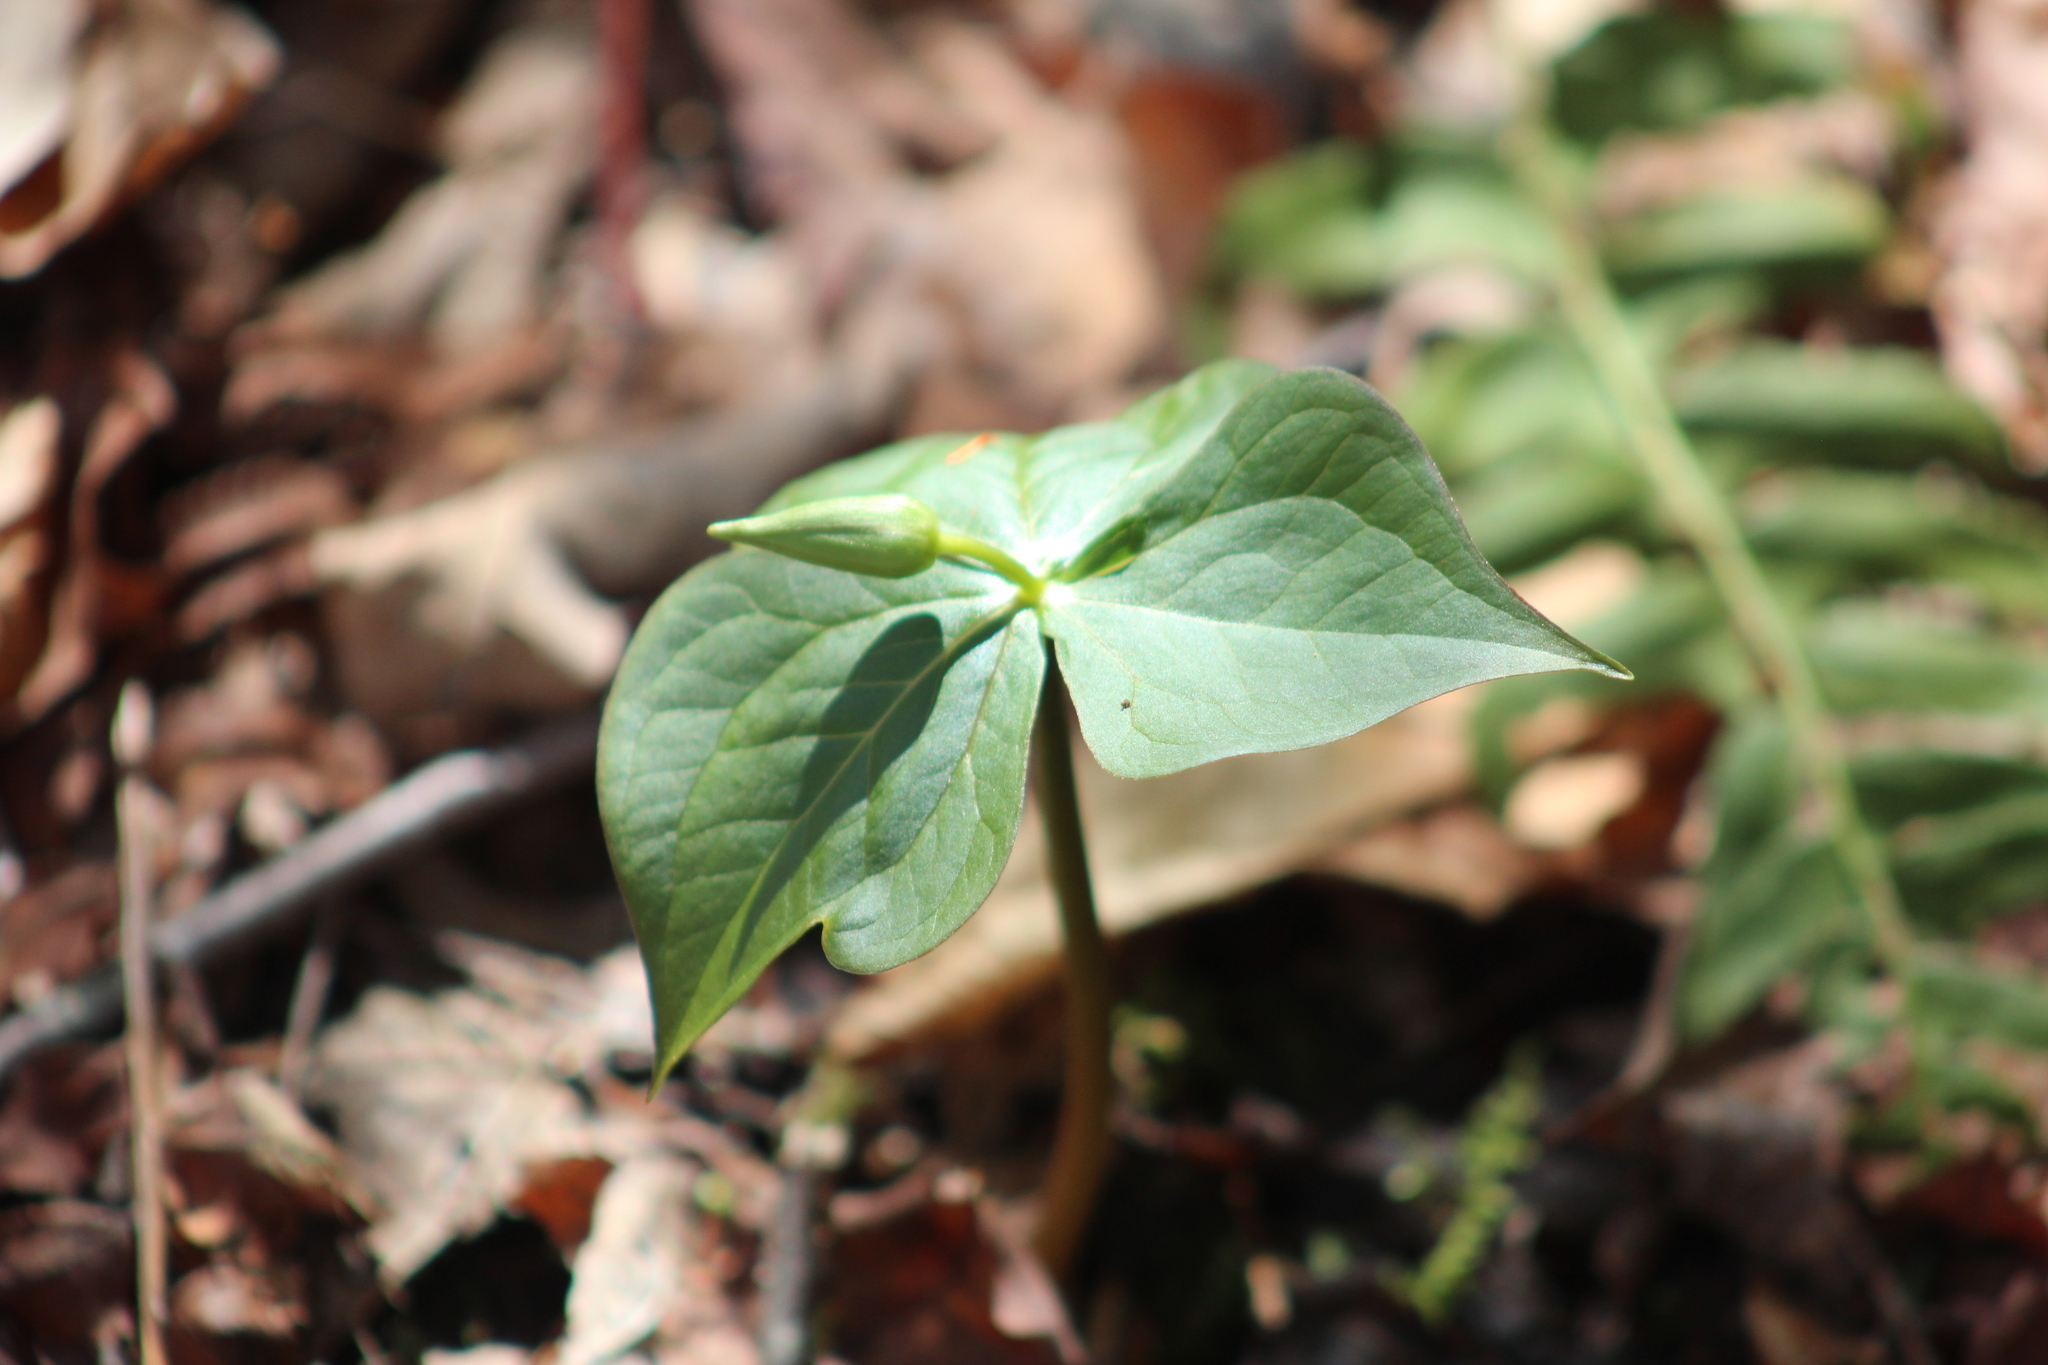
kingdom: Plantae
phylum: Tracheophyta
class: Liliopsida
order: Liliales
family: Melanthiaceae
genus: Trillium
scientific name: Trillium erectum
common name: Purple trillium
